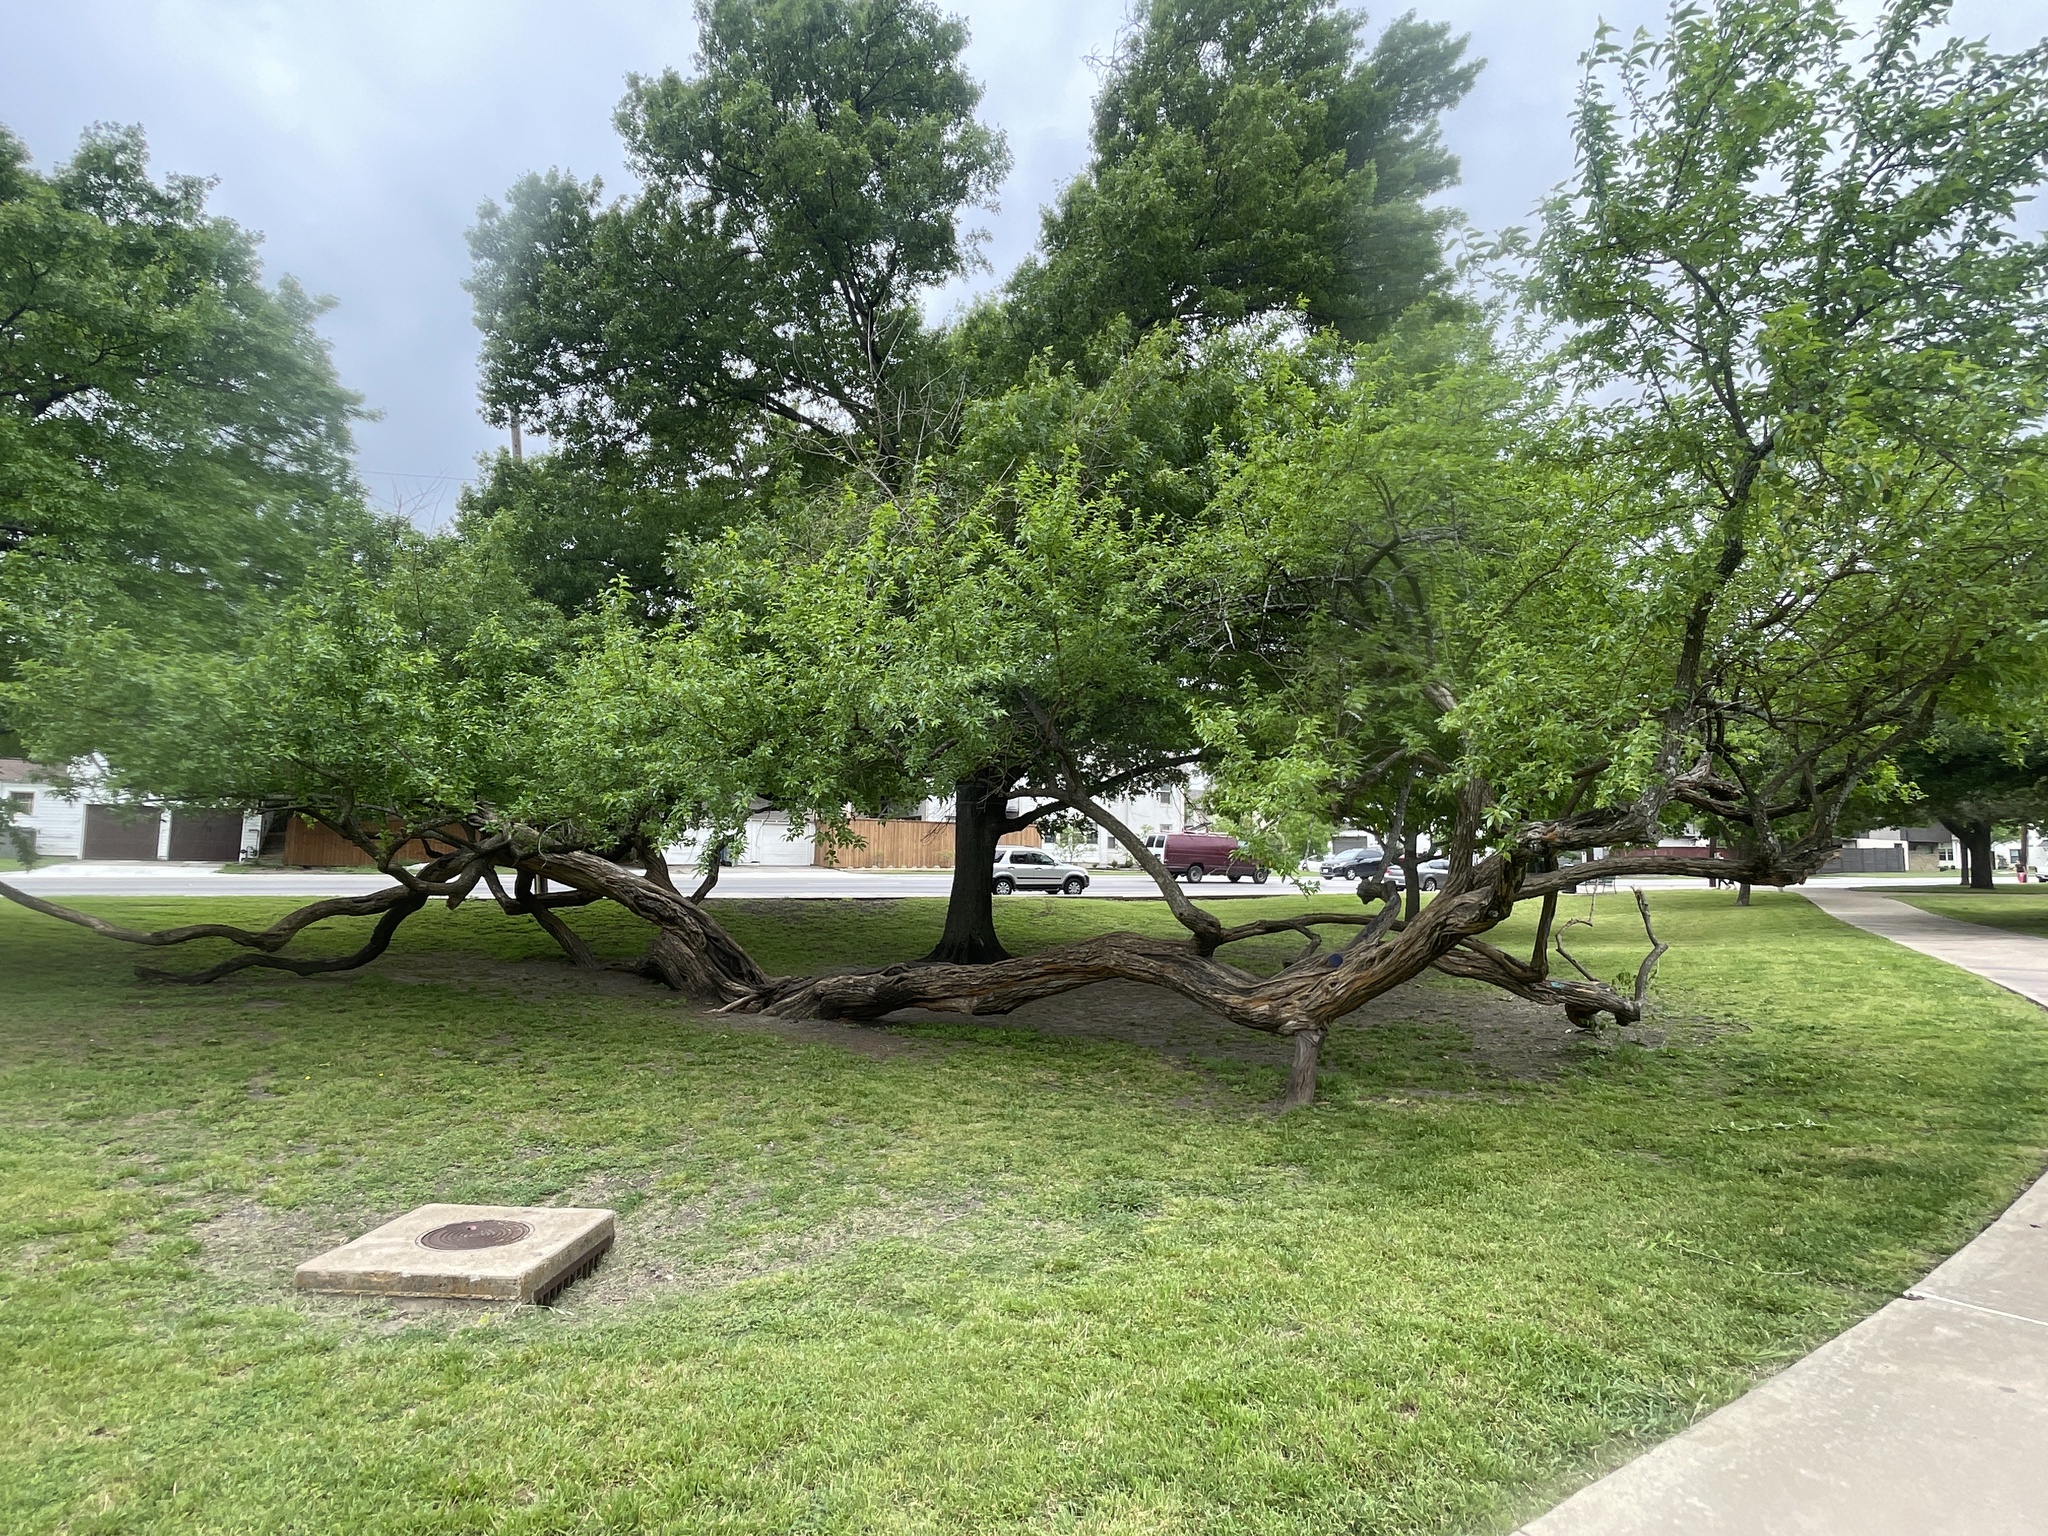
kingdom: Plantae
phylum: Tracheophyta
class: Magnoliopsida
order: Rosales
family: Moraceae
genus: Maclura
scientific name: Maclura pomifera
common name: Osage-orange
